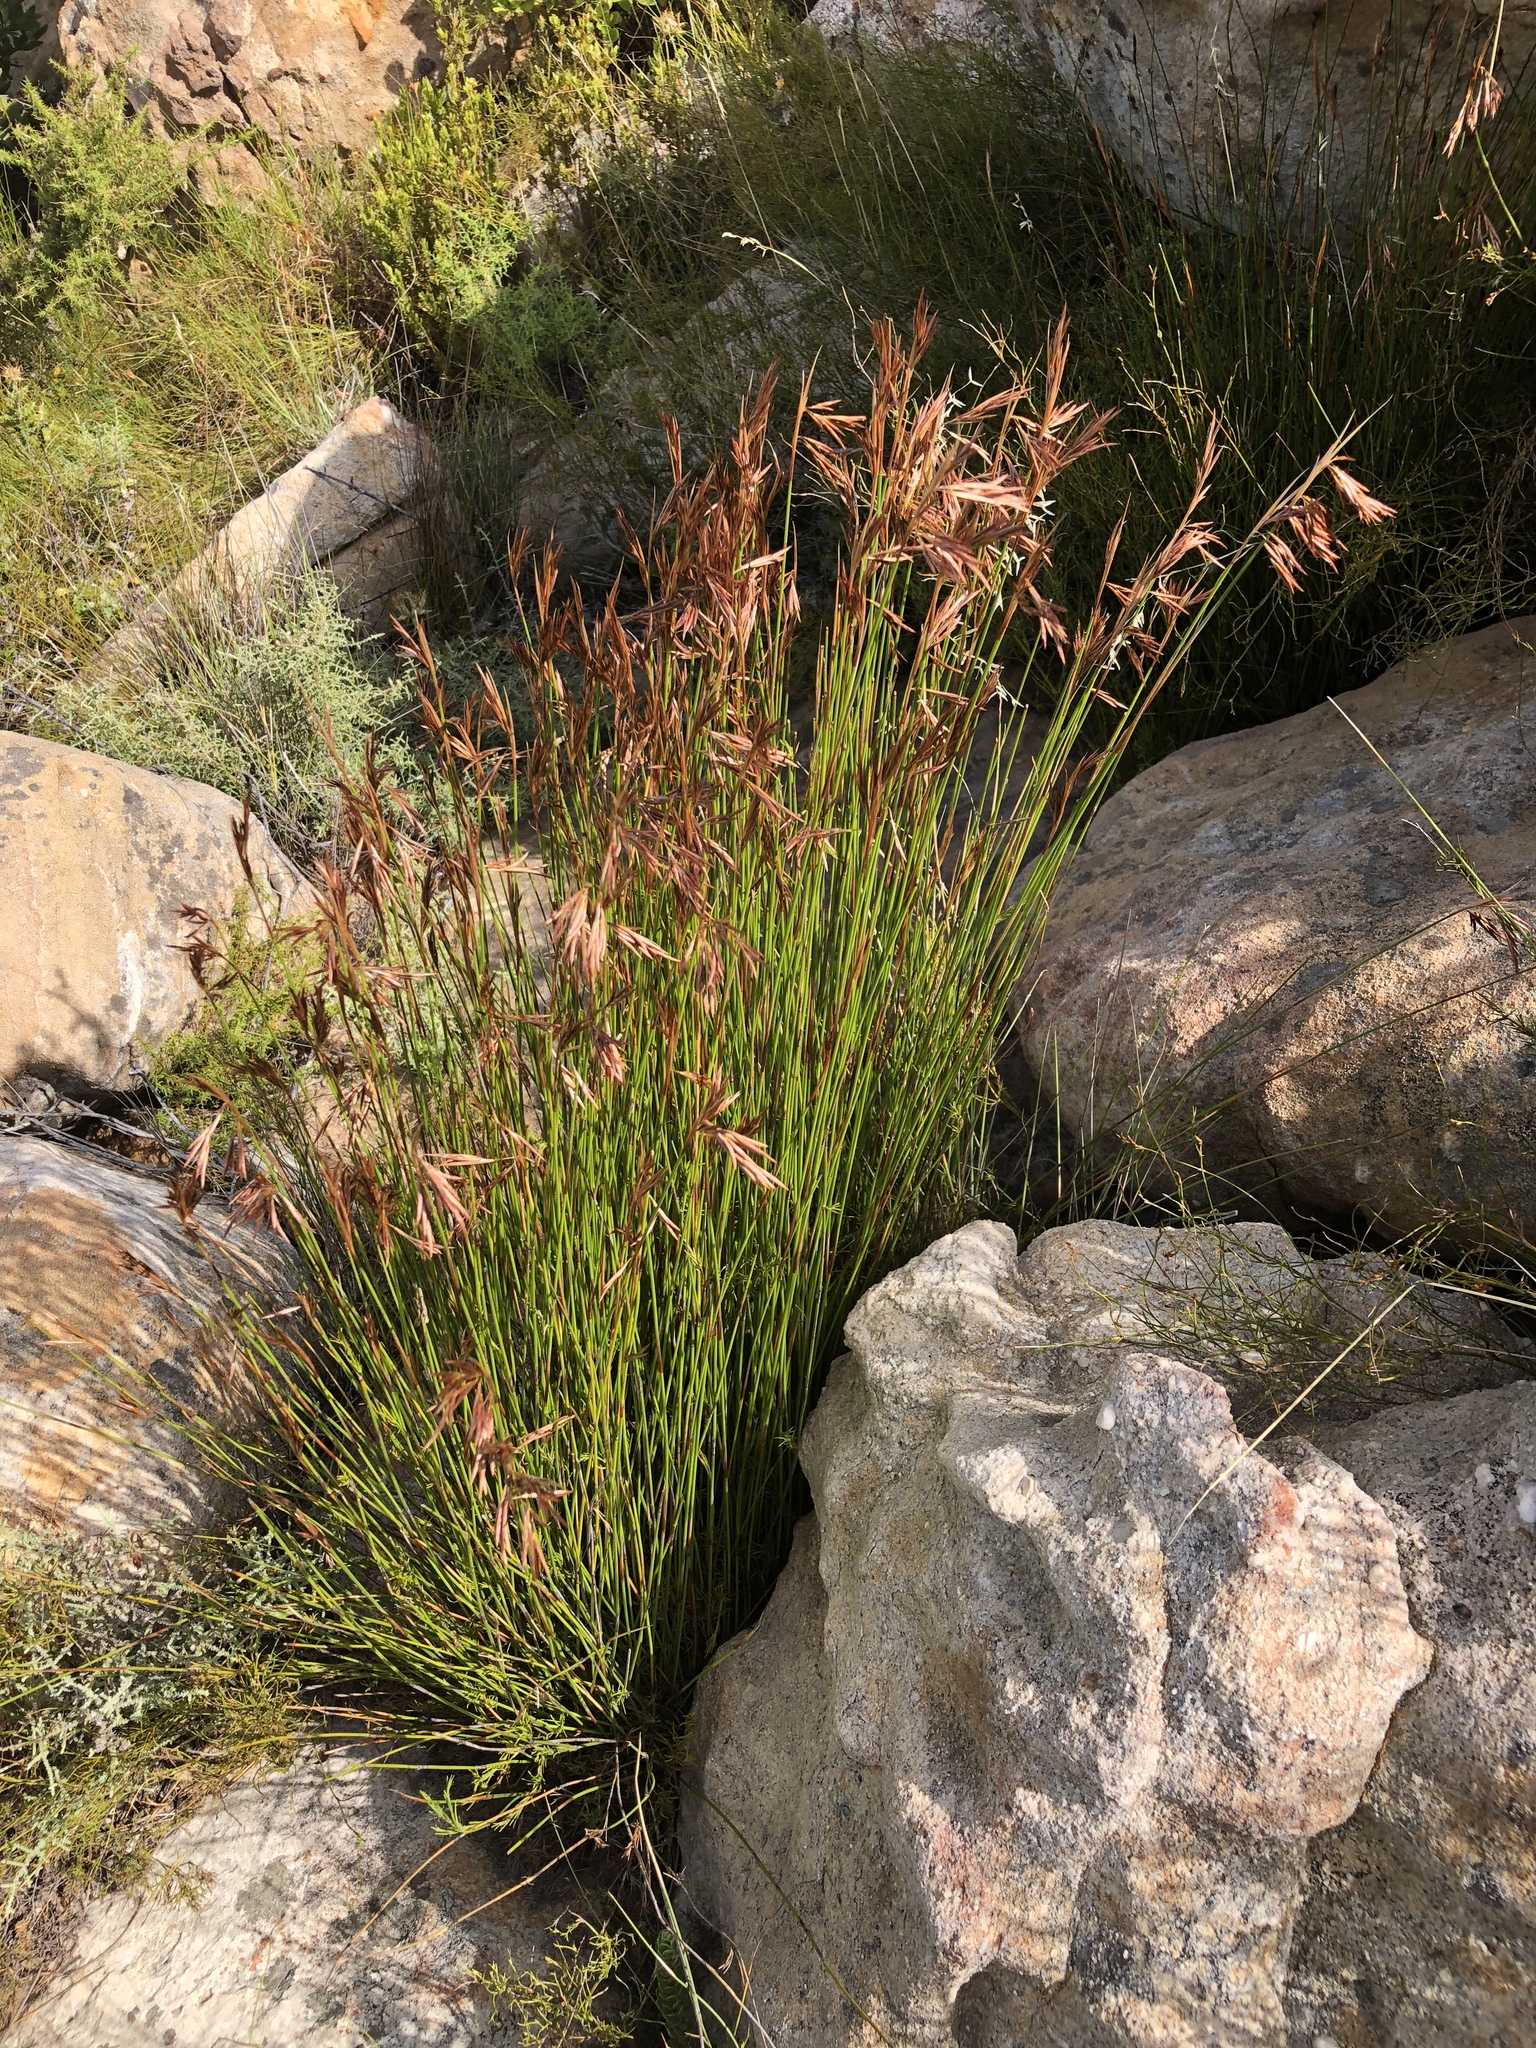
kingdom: Plantae
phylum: Tracheophyta
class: Liliopsida
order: Poales
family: Restionaceae
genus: Thamnochortus
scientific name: Thamnochortus guthrieae
